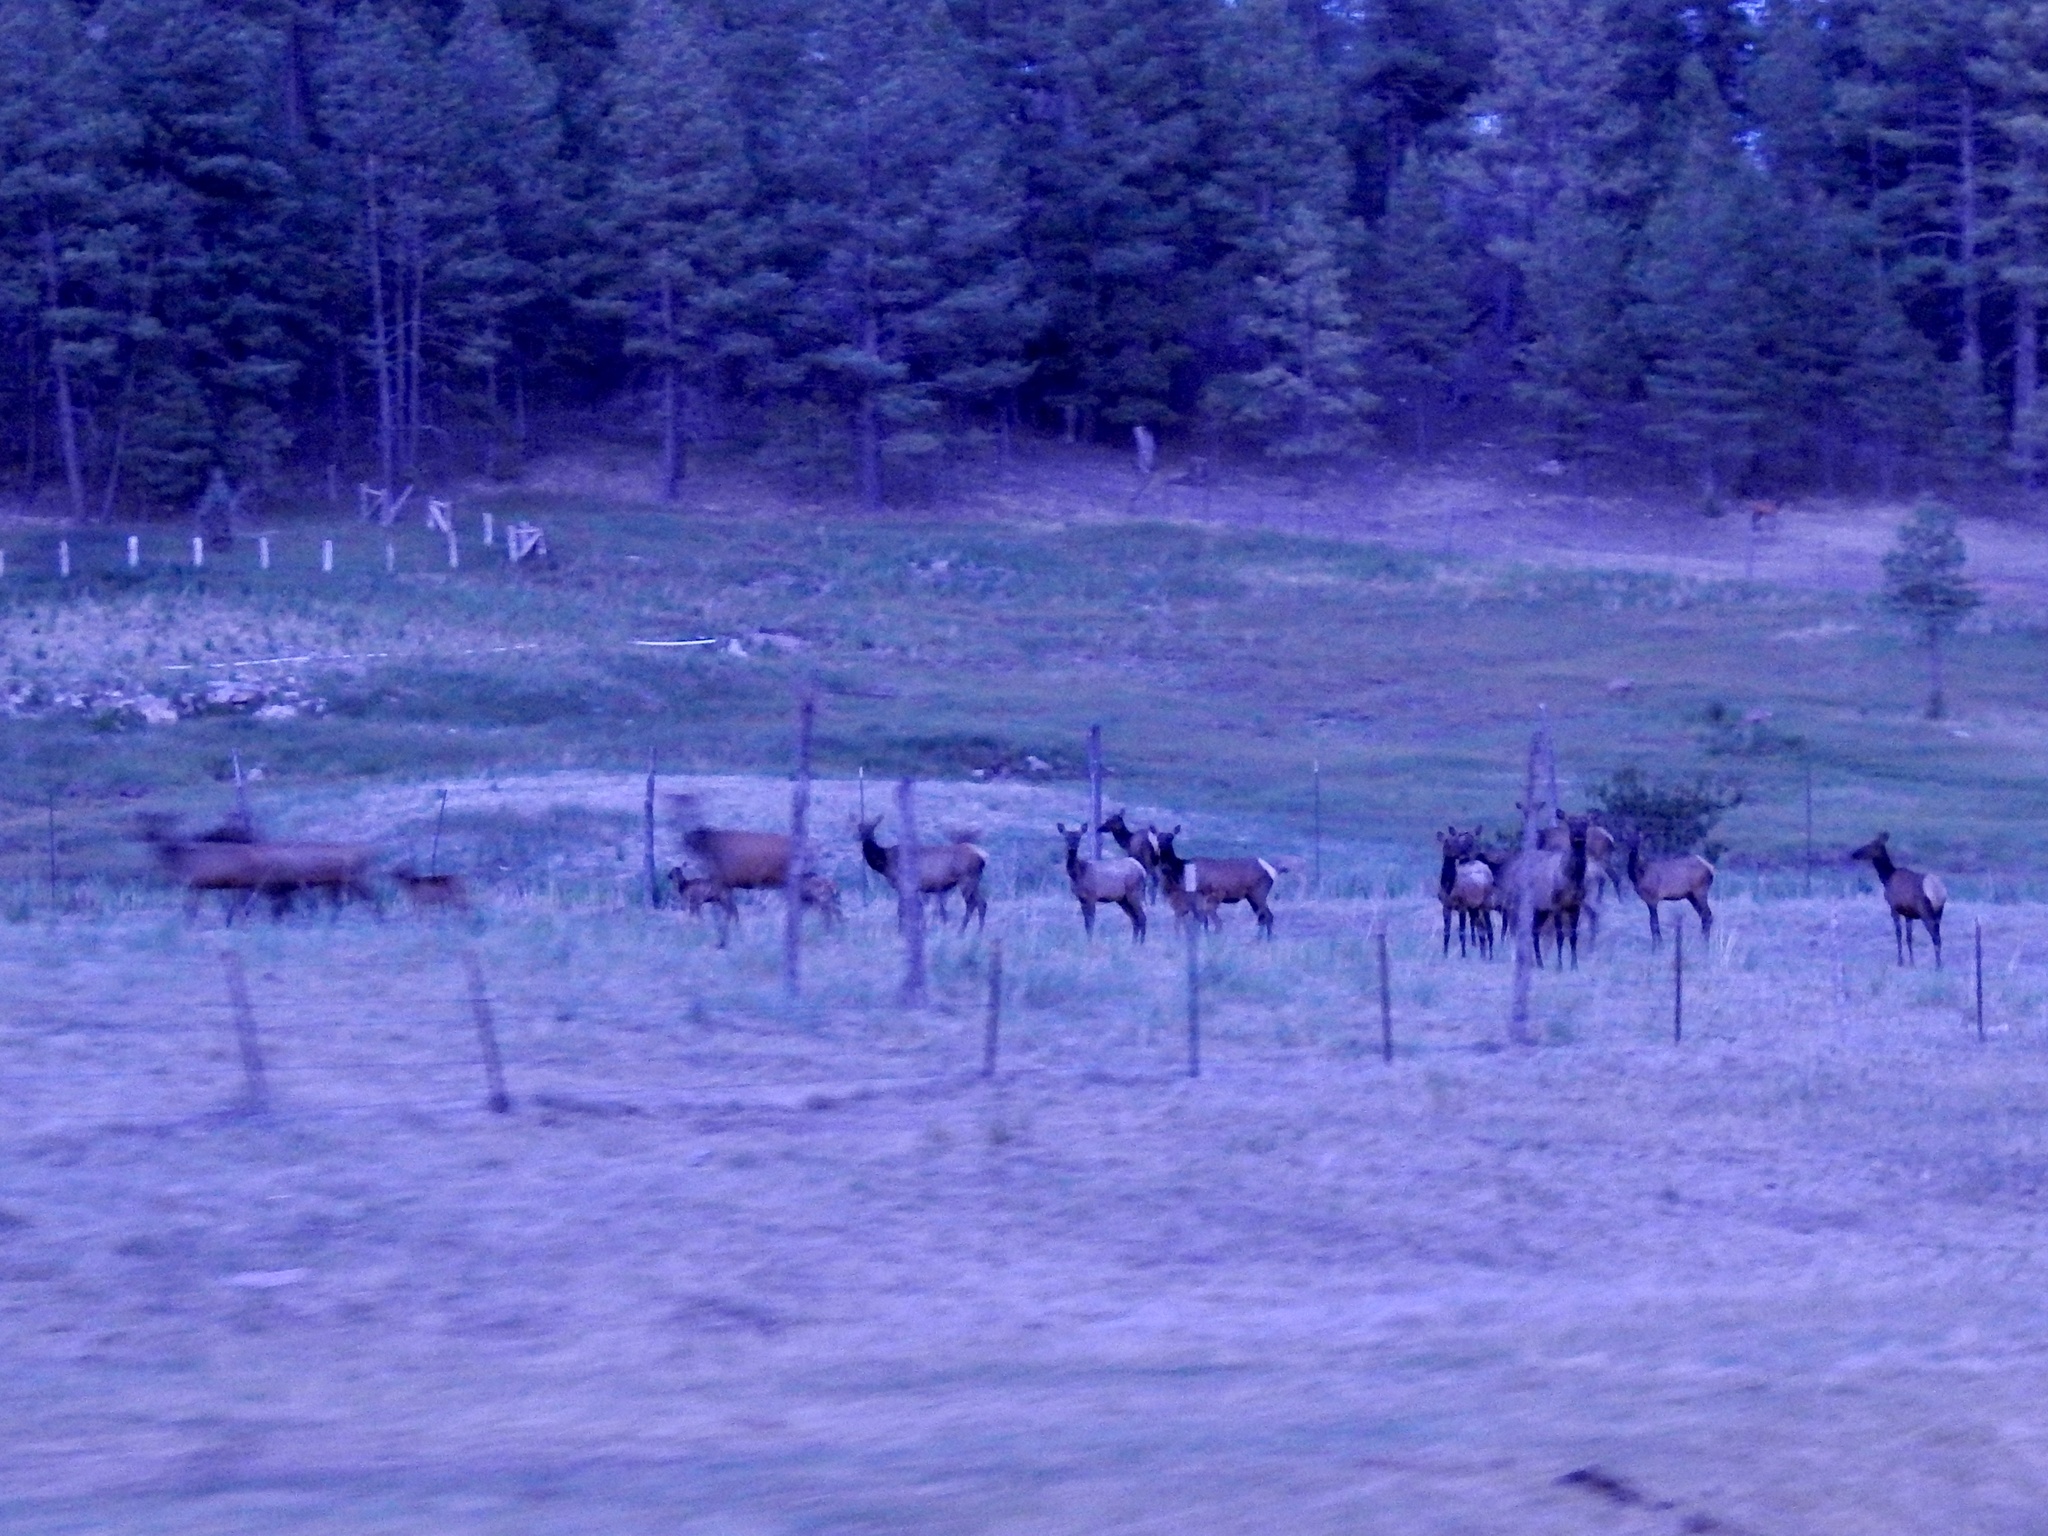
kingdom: Animalia
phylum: Chordata
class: Mammalia
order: Artiodactyla
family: Cervidae
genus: Cervus
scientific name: Cervus elaphus
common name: Red deer
